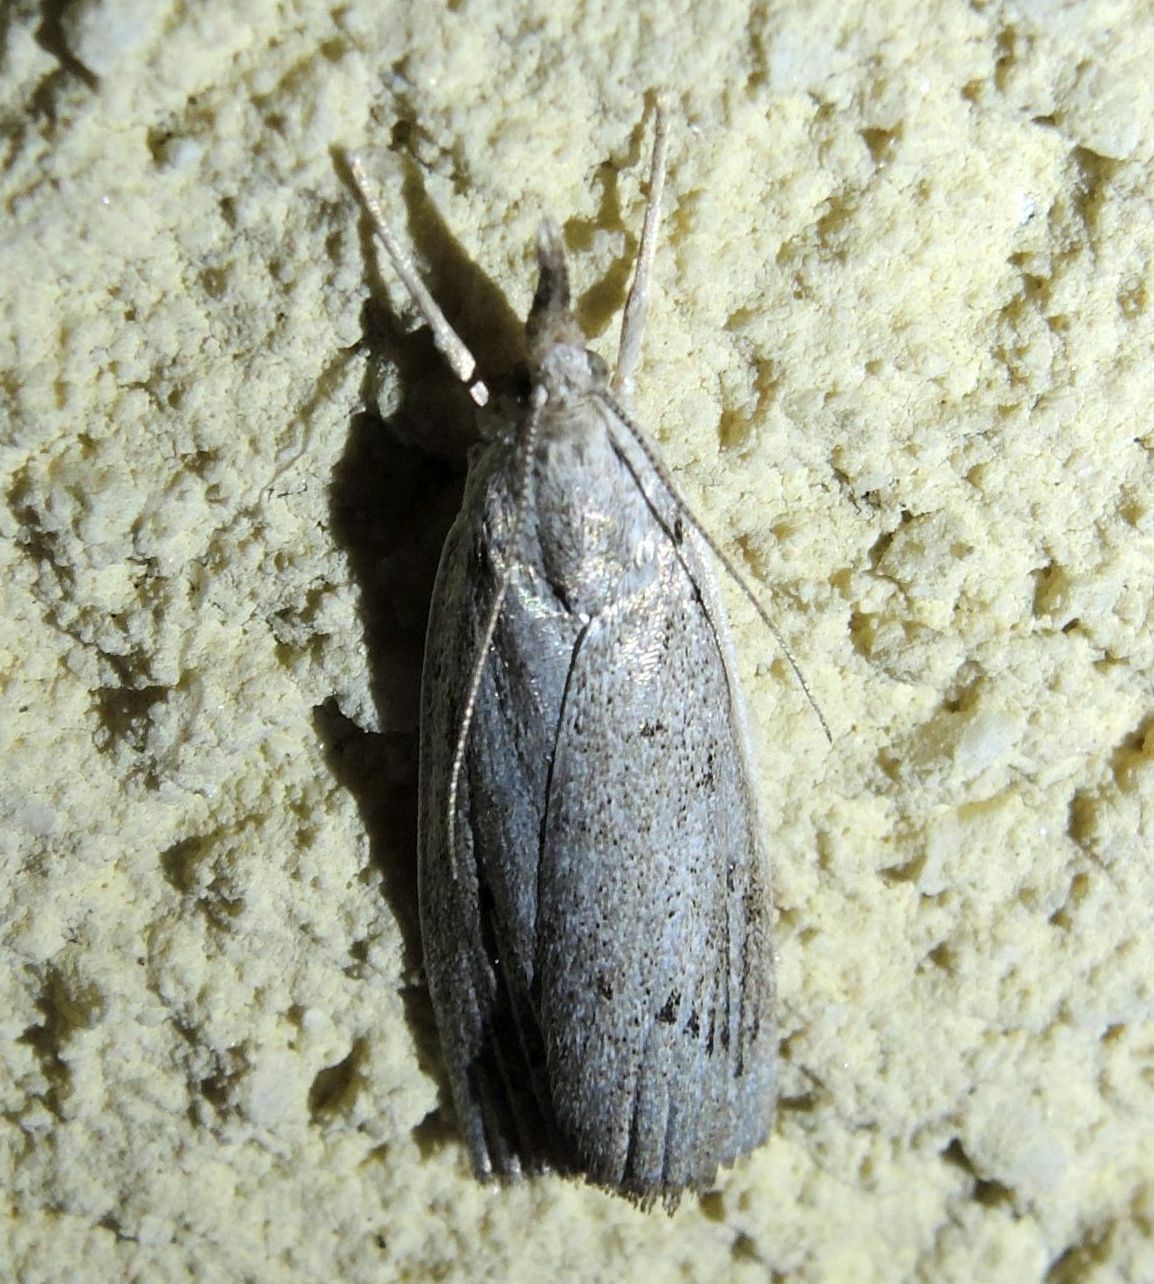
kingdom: Animalia
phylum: Arthropoda
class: Insecta
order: Lepidoptera
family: Crambidae
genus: Calamotropha
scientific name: Calamotropha paludella
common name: Bulrush veneer
